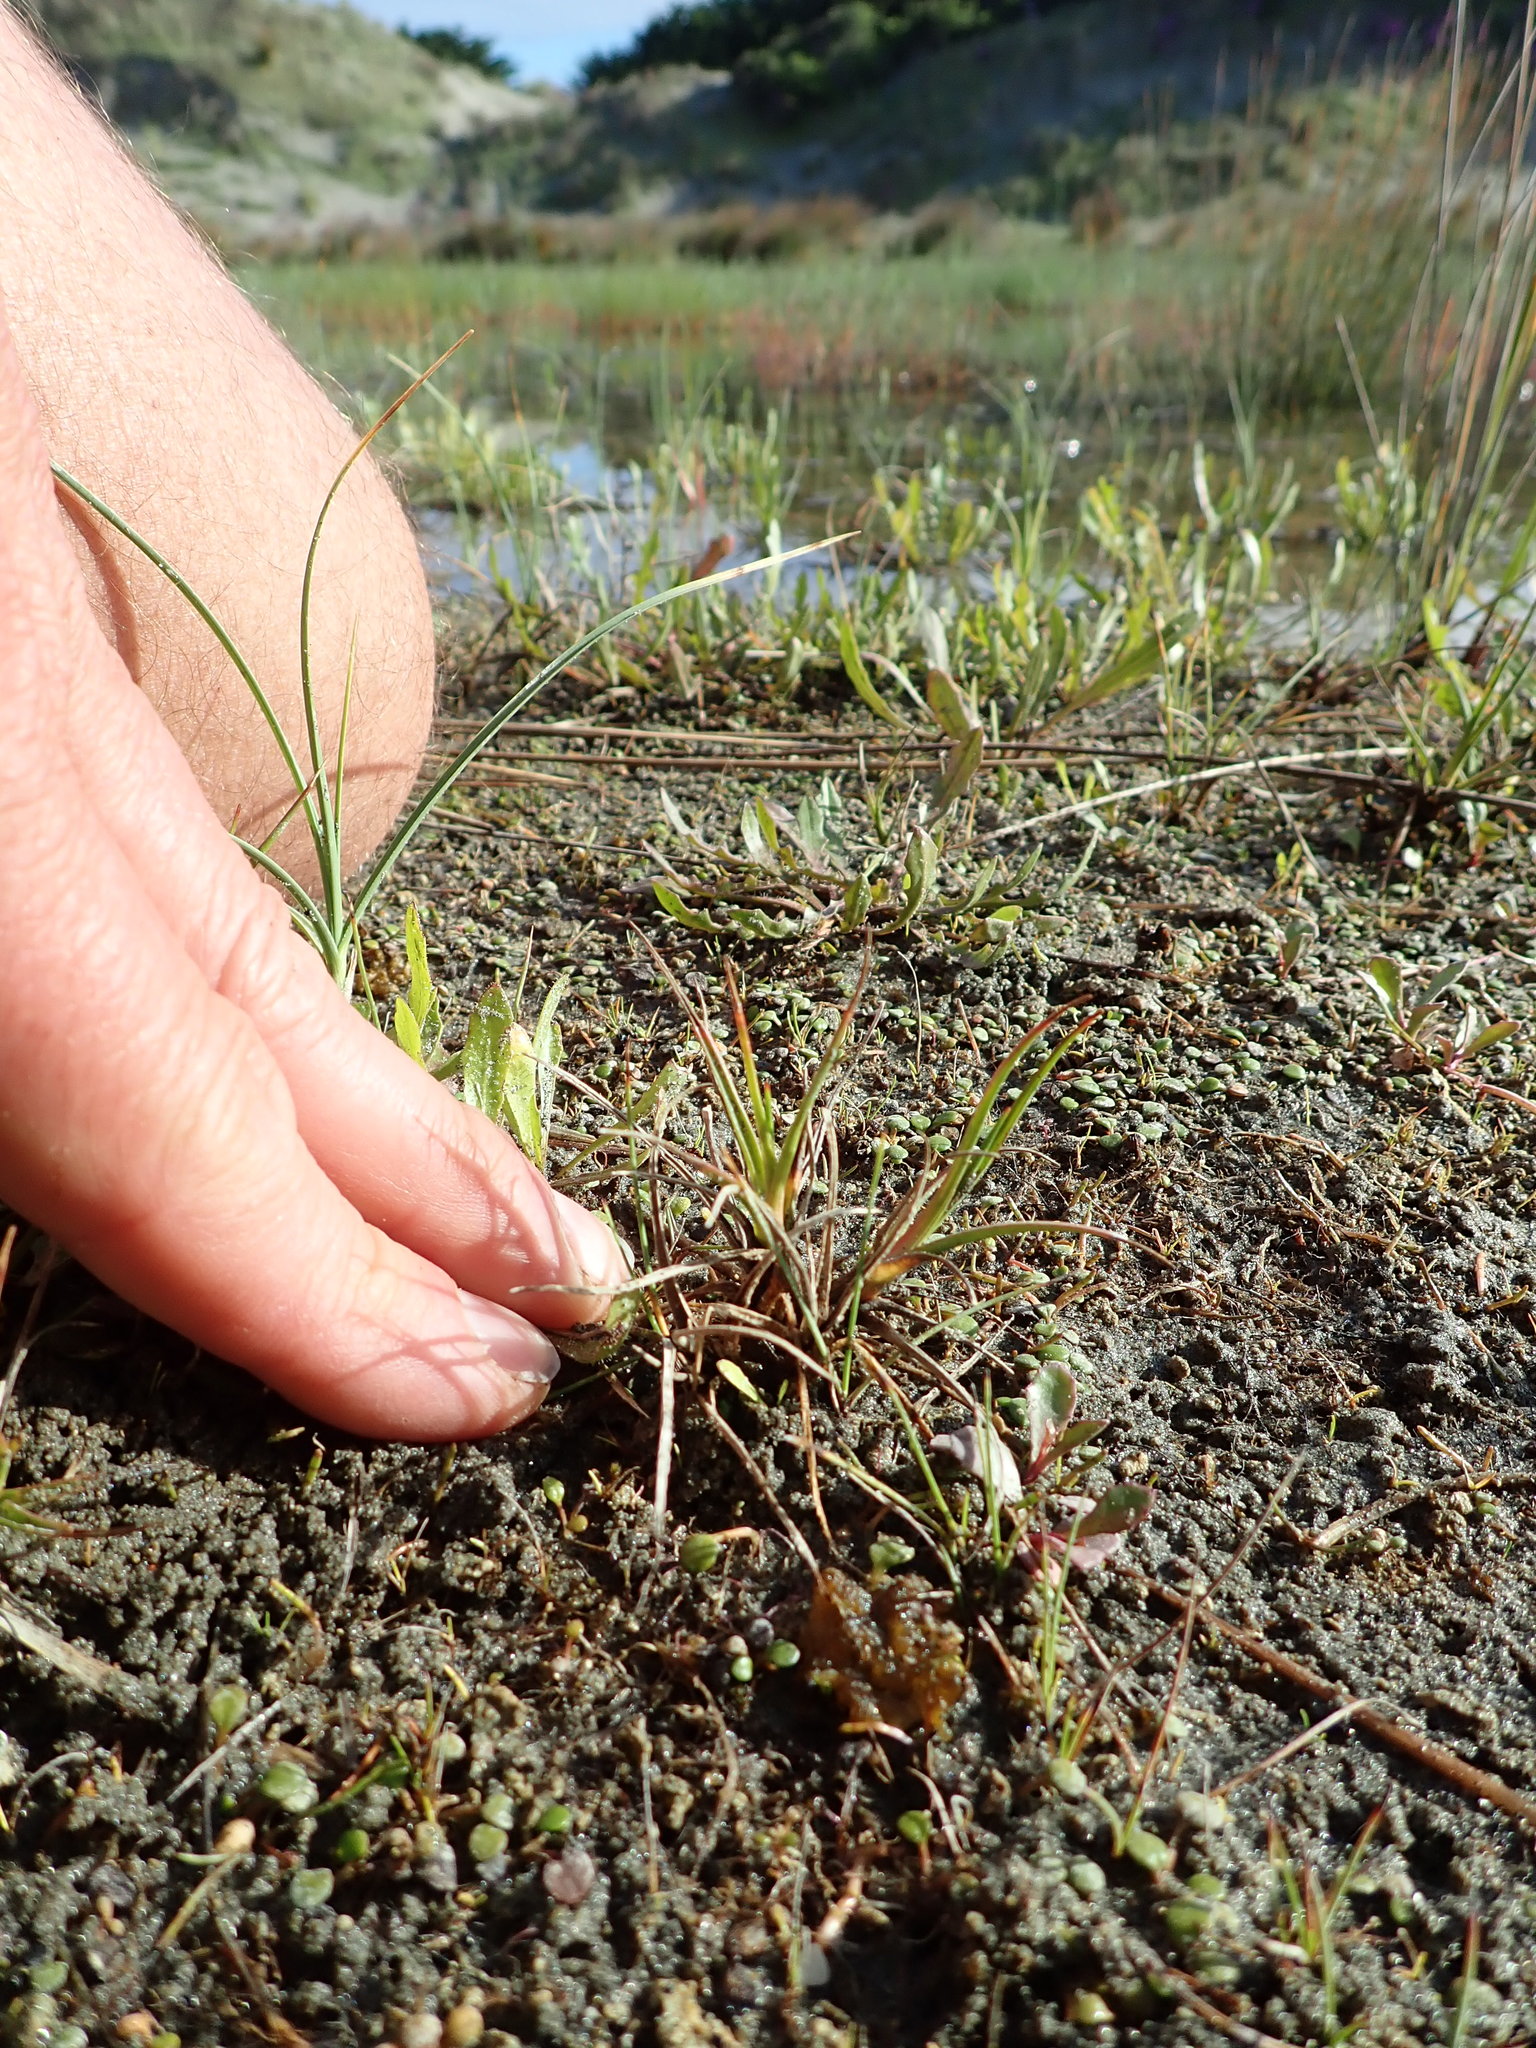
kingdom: Plantae
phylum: Tracheophyta
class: Liliopsida
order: Poales
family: Juncaceae
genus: Juncus
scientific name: Juncus caespiticius
